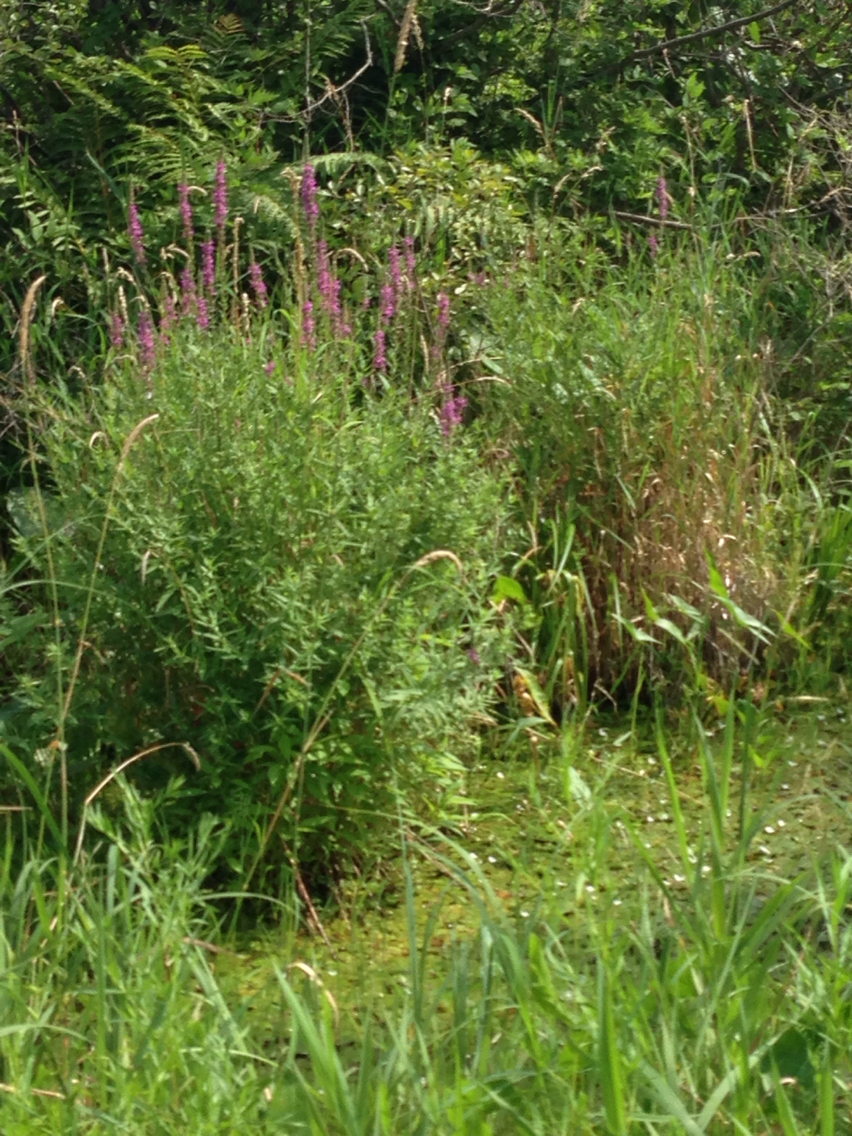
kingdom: Plantae
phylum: Tracheophyta
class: Magnoliopsida
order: Myrtales
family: Lythraceae
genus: Lythrum
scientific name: Lythrum salicaria
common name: Purple loosestrife
